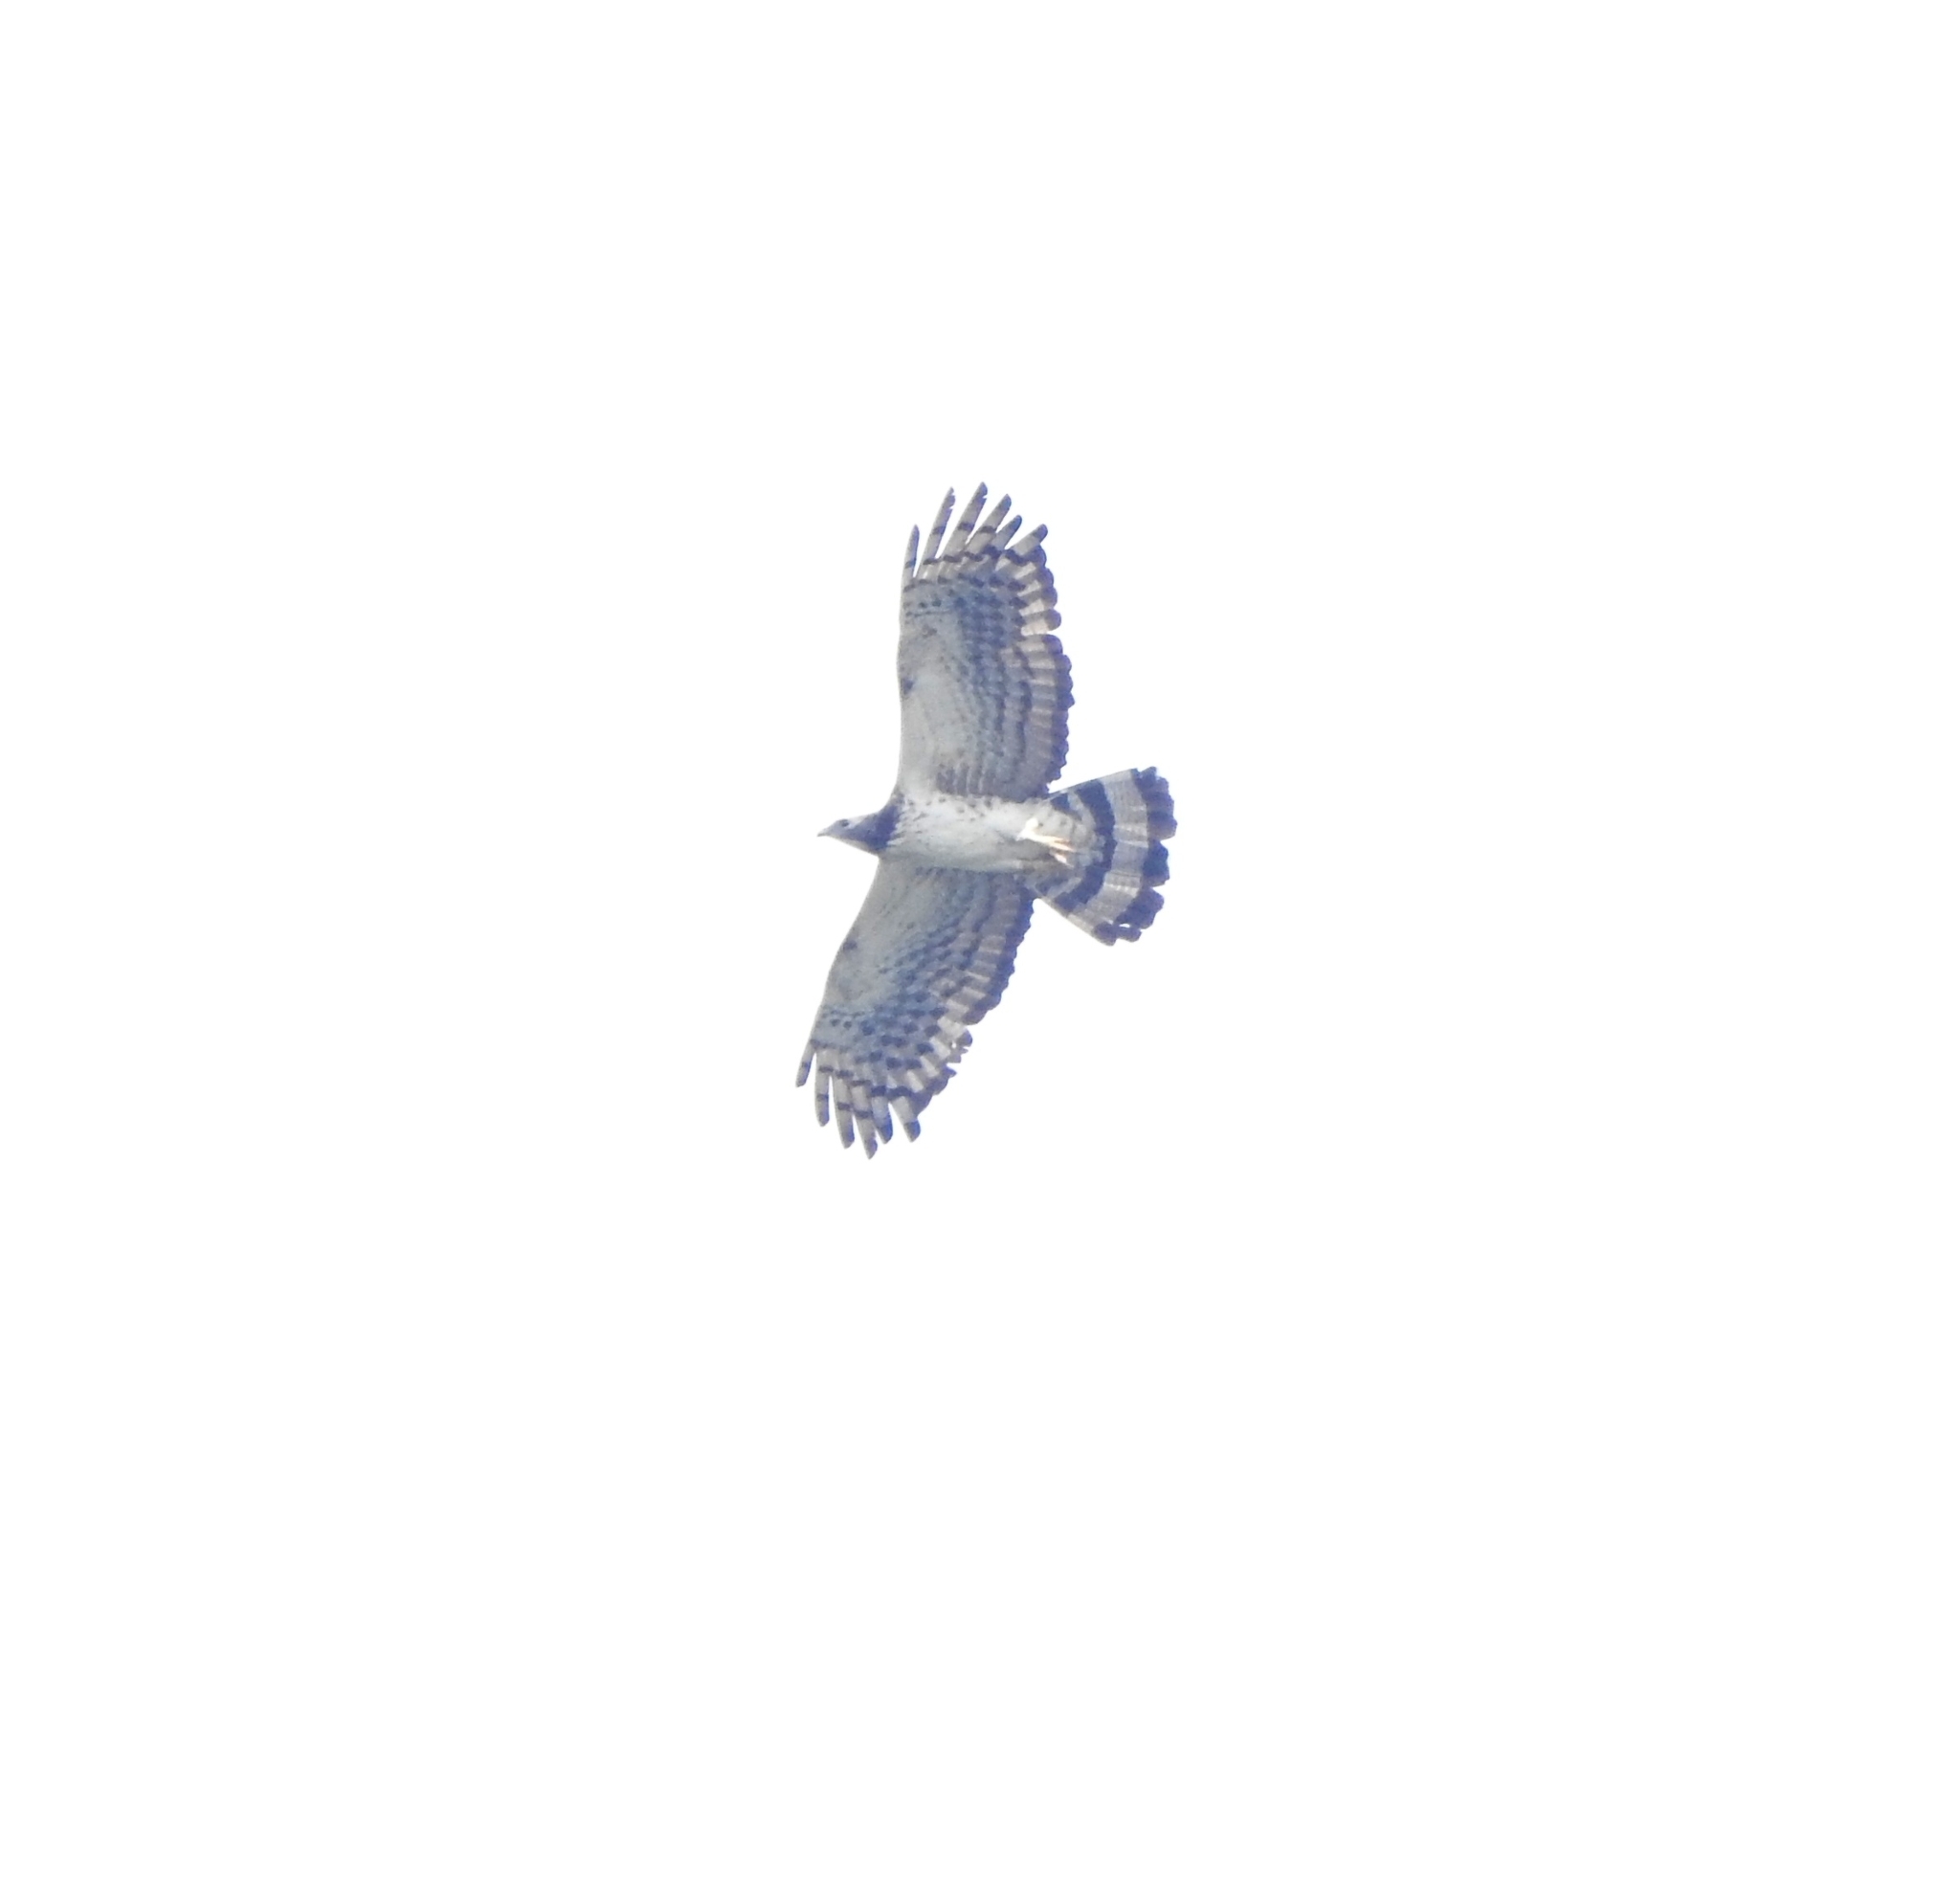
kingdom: Animalia
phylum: Chordata
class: Aves
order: Accipitriformes
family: Accipitridae
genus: Pernis
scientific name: Pernis ptilorhynchus
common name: Crested honey buzzard
